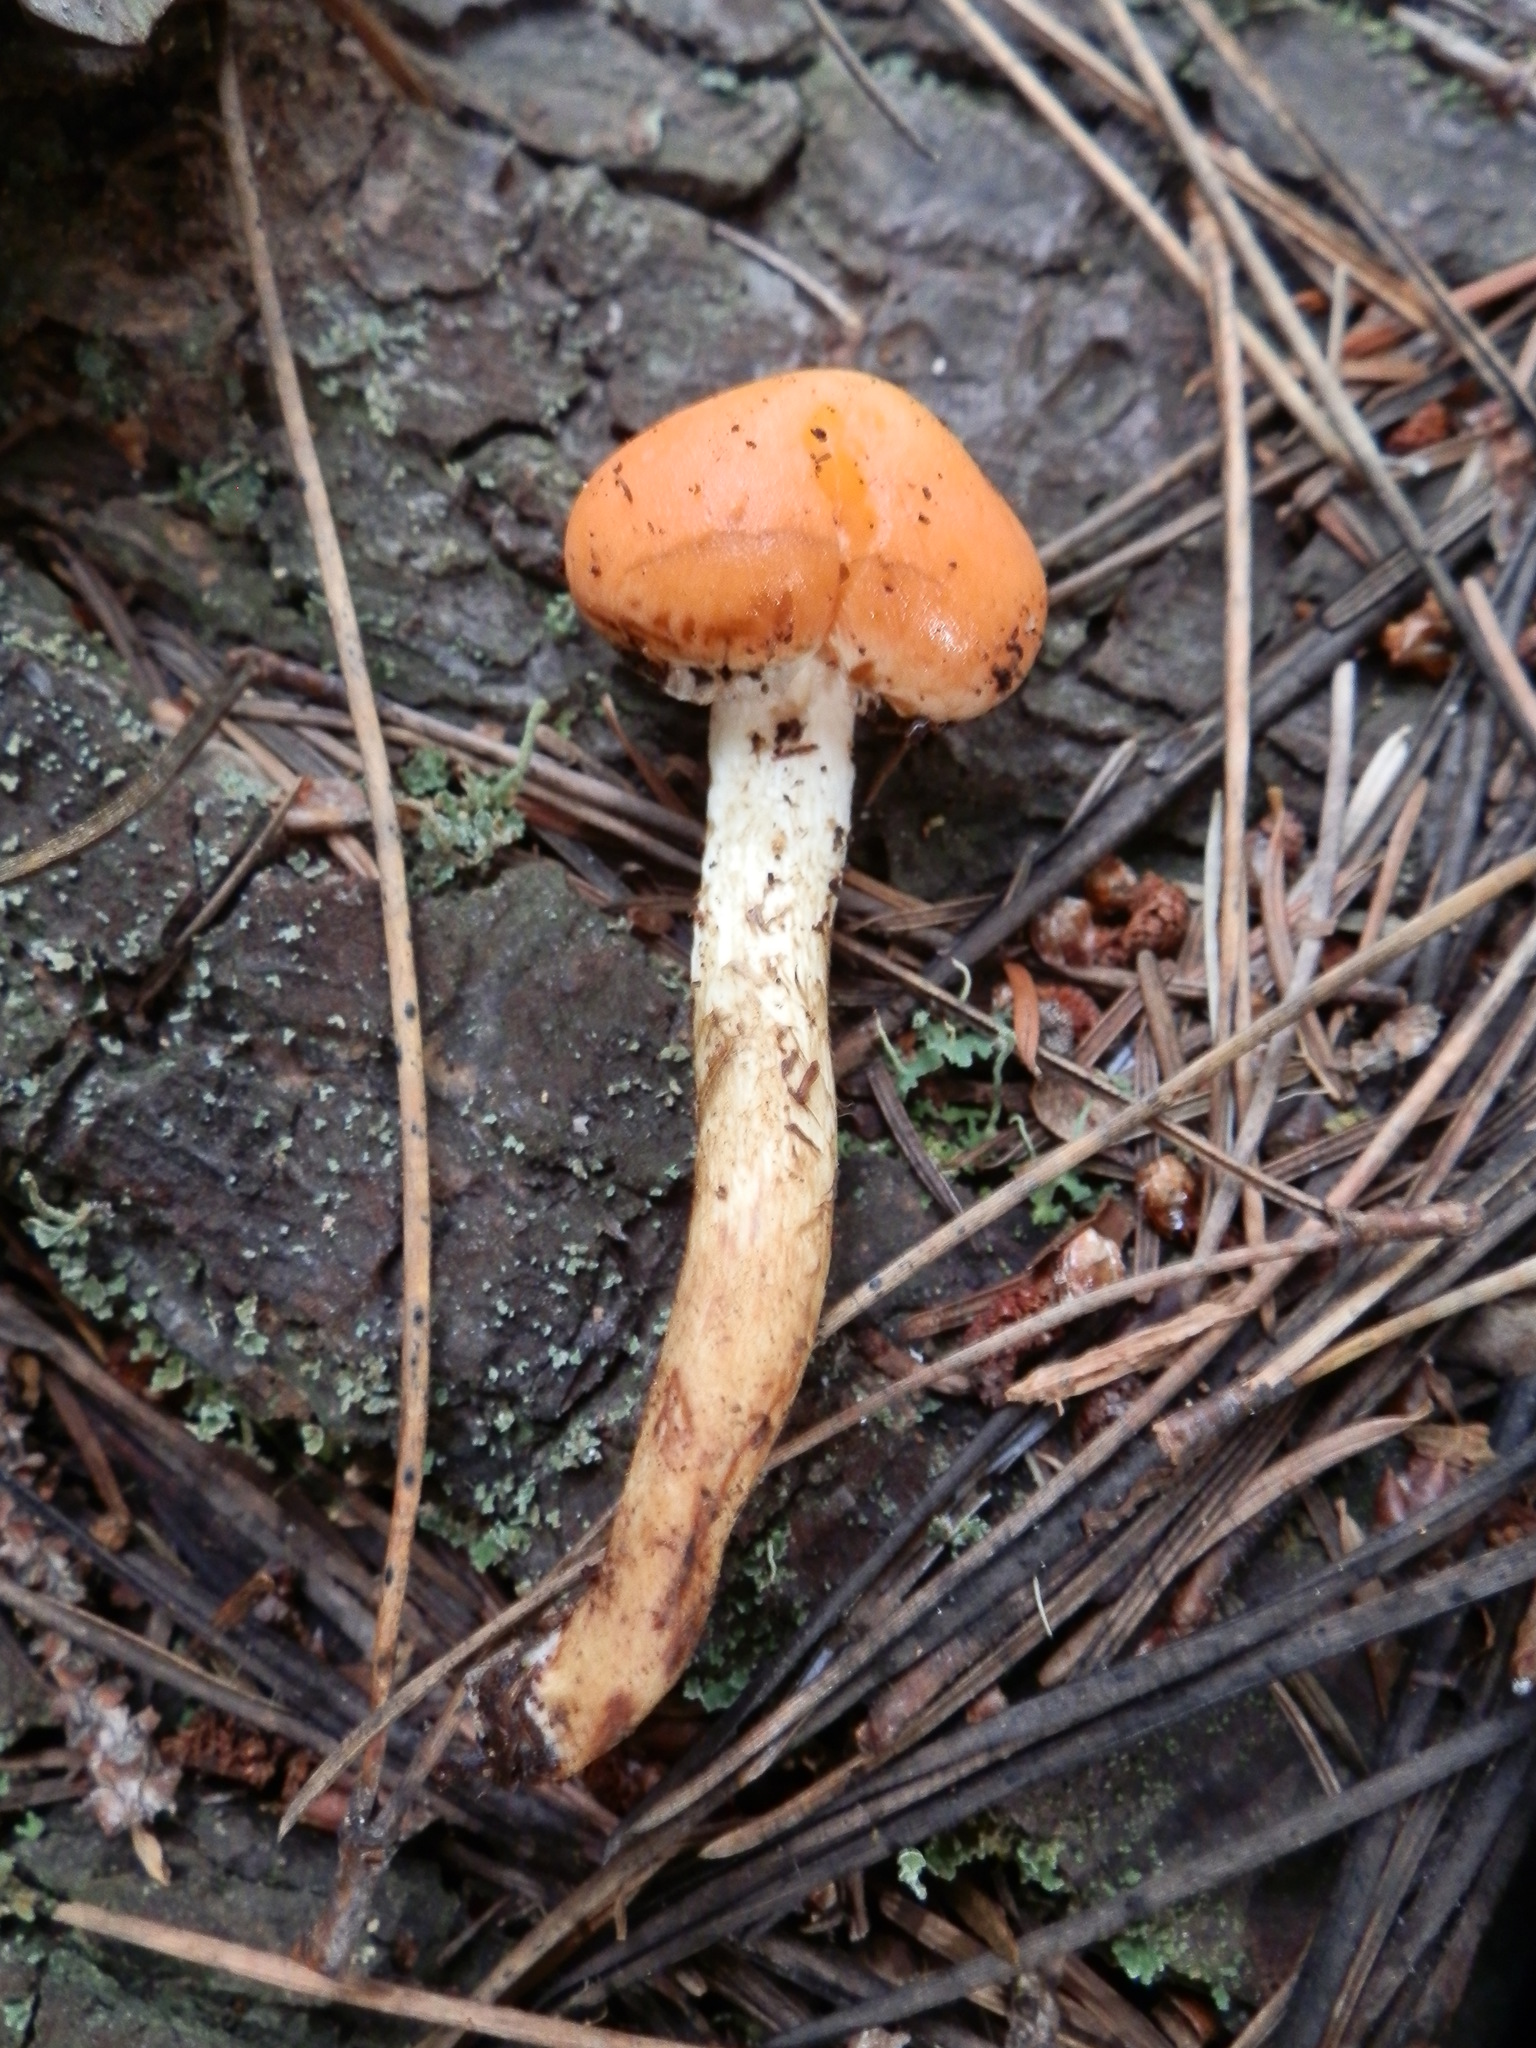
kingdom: Fungi
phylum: Basidiomycota
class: Agaricomycetes
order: Agaricales
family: Strophariaceae
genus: Pyrrhulomyces
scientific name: Pyrrhulomyces astragalinus
